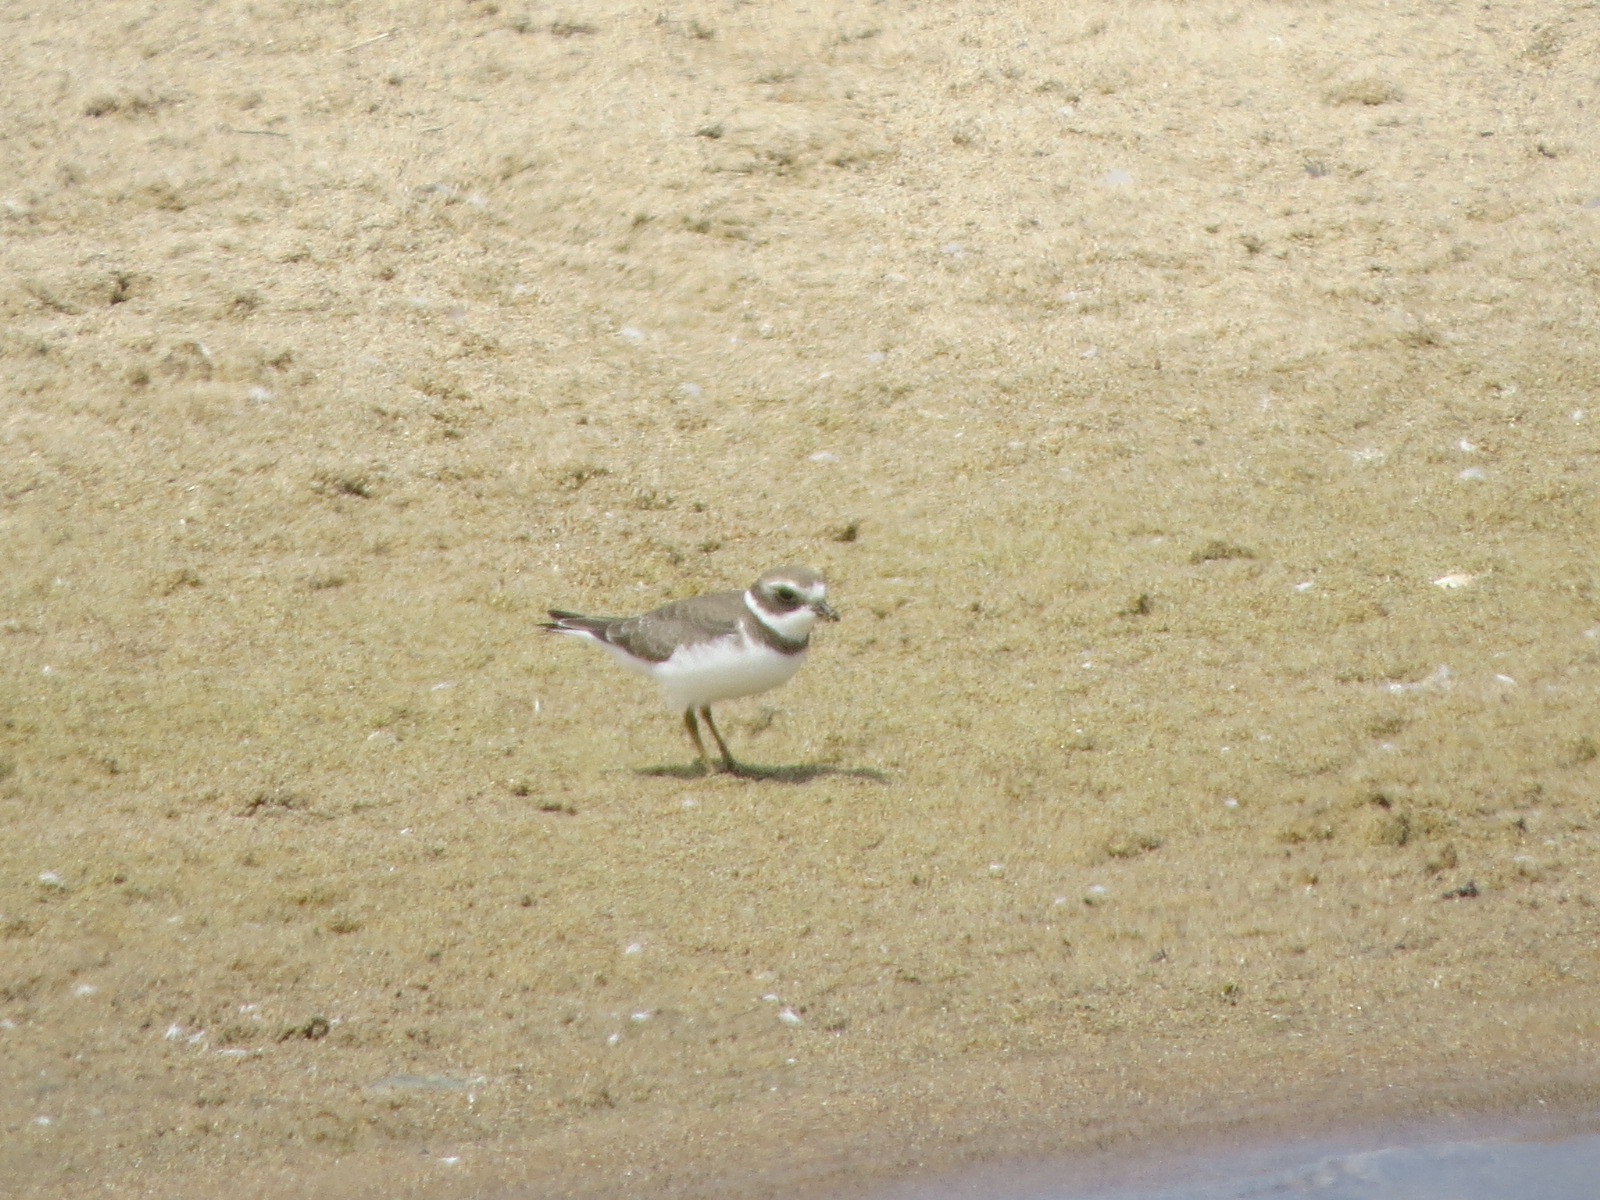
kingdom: Animalia
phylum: Chordata
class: Aves
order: Charadriiformes
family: Charadriidae
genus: Charadrius
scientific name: Charadrius semipalmatus
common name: Semipalmated plover
